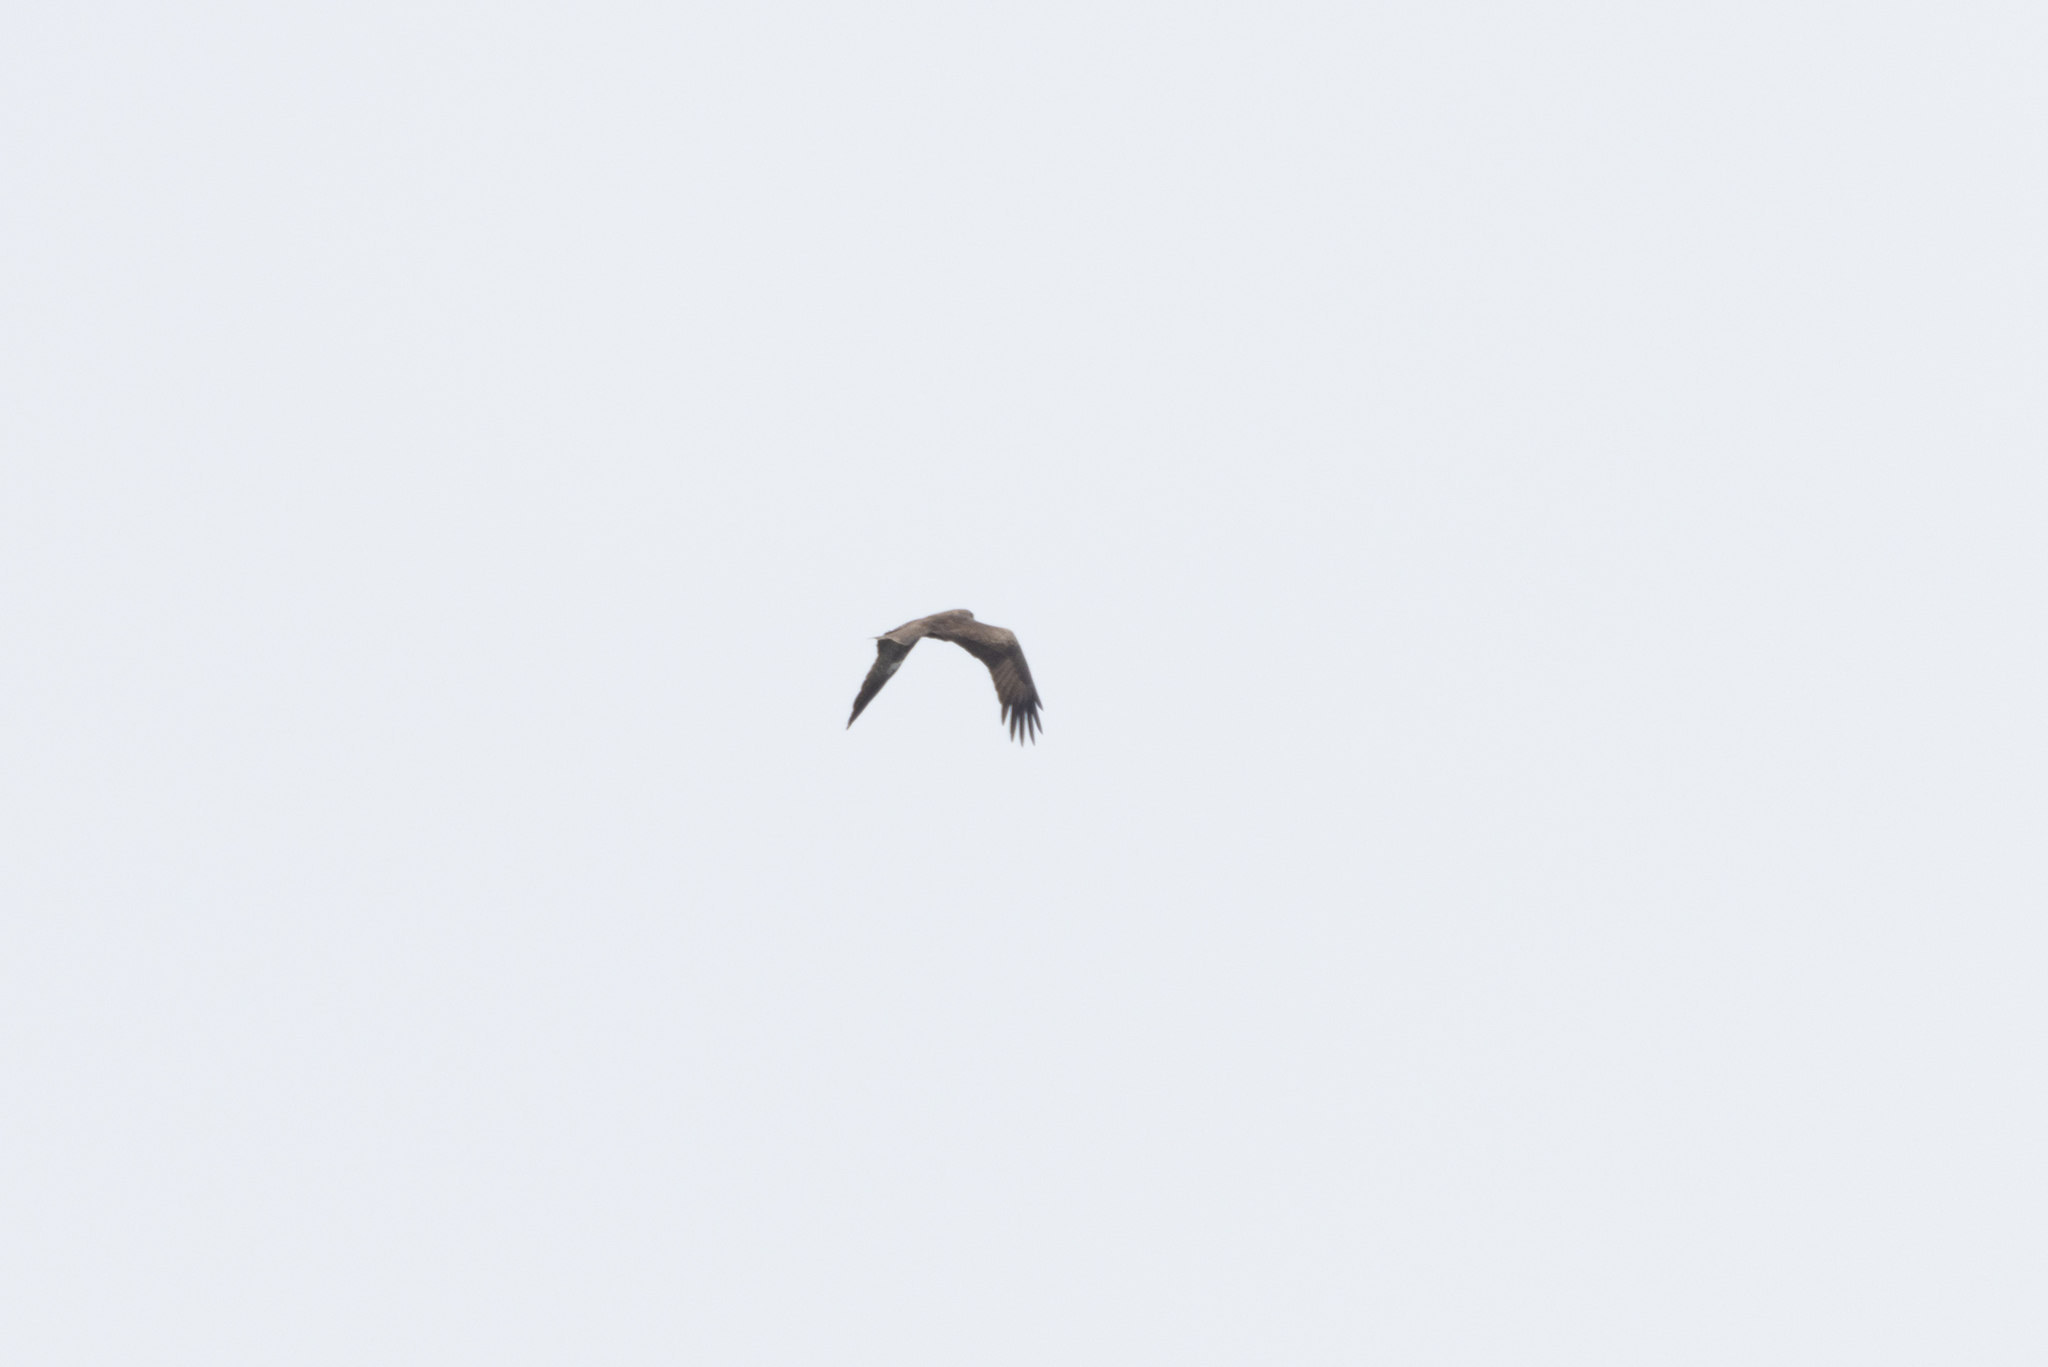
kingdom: Animalia
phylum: Chordata
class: Aves
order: Accipitriformes
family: Accipitridae
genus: Milvus
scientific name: Milvus migrans
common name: Black kite
